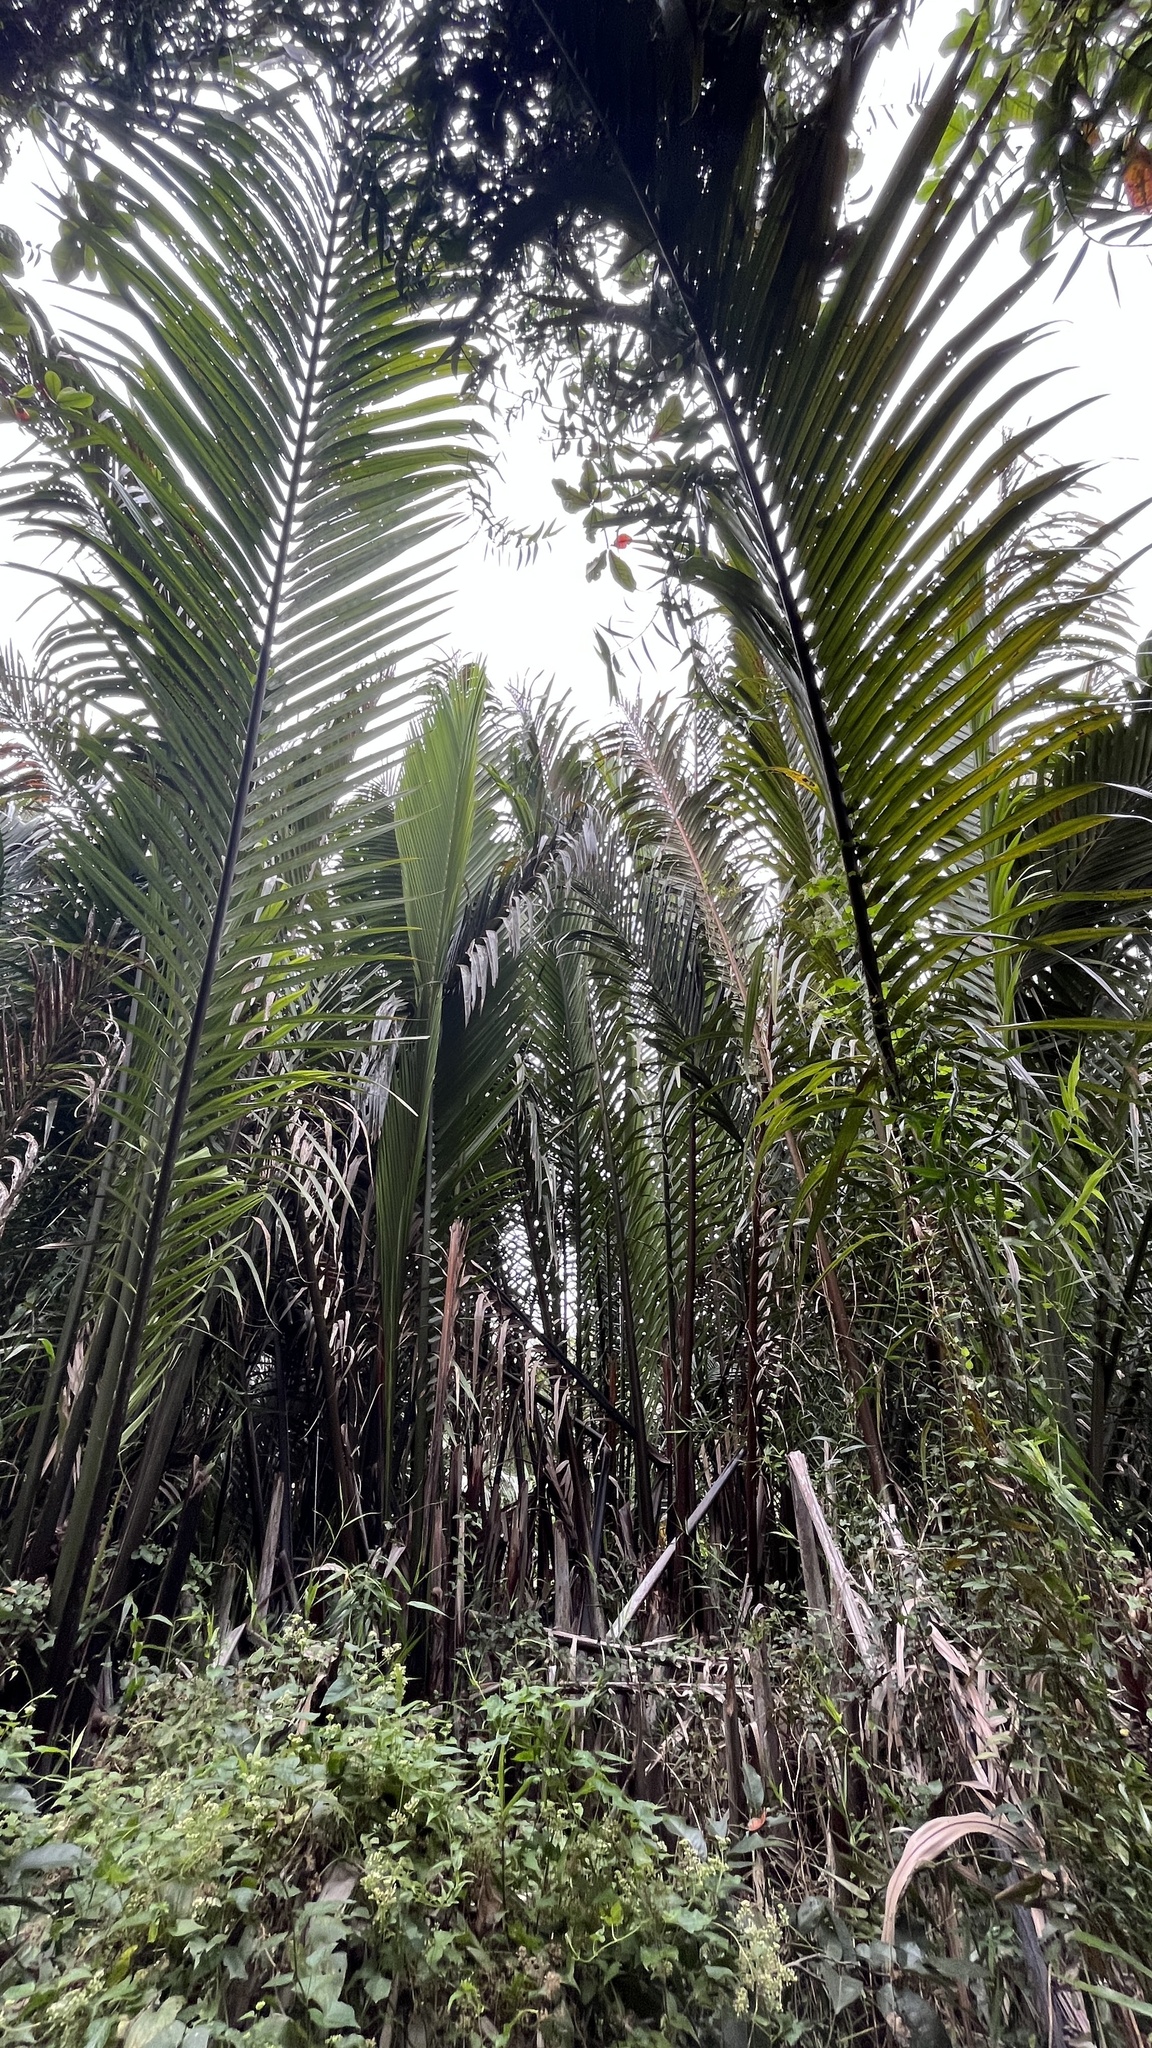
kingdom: Plantae
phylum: Tracheophyta
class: Liliopsida
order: Arecales
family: Arecaceae
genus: Nypa
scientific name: Nypa fruticans
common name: Mangrove palm
